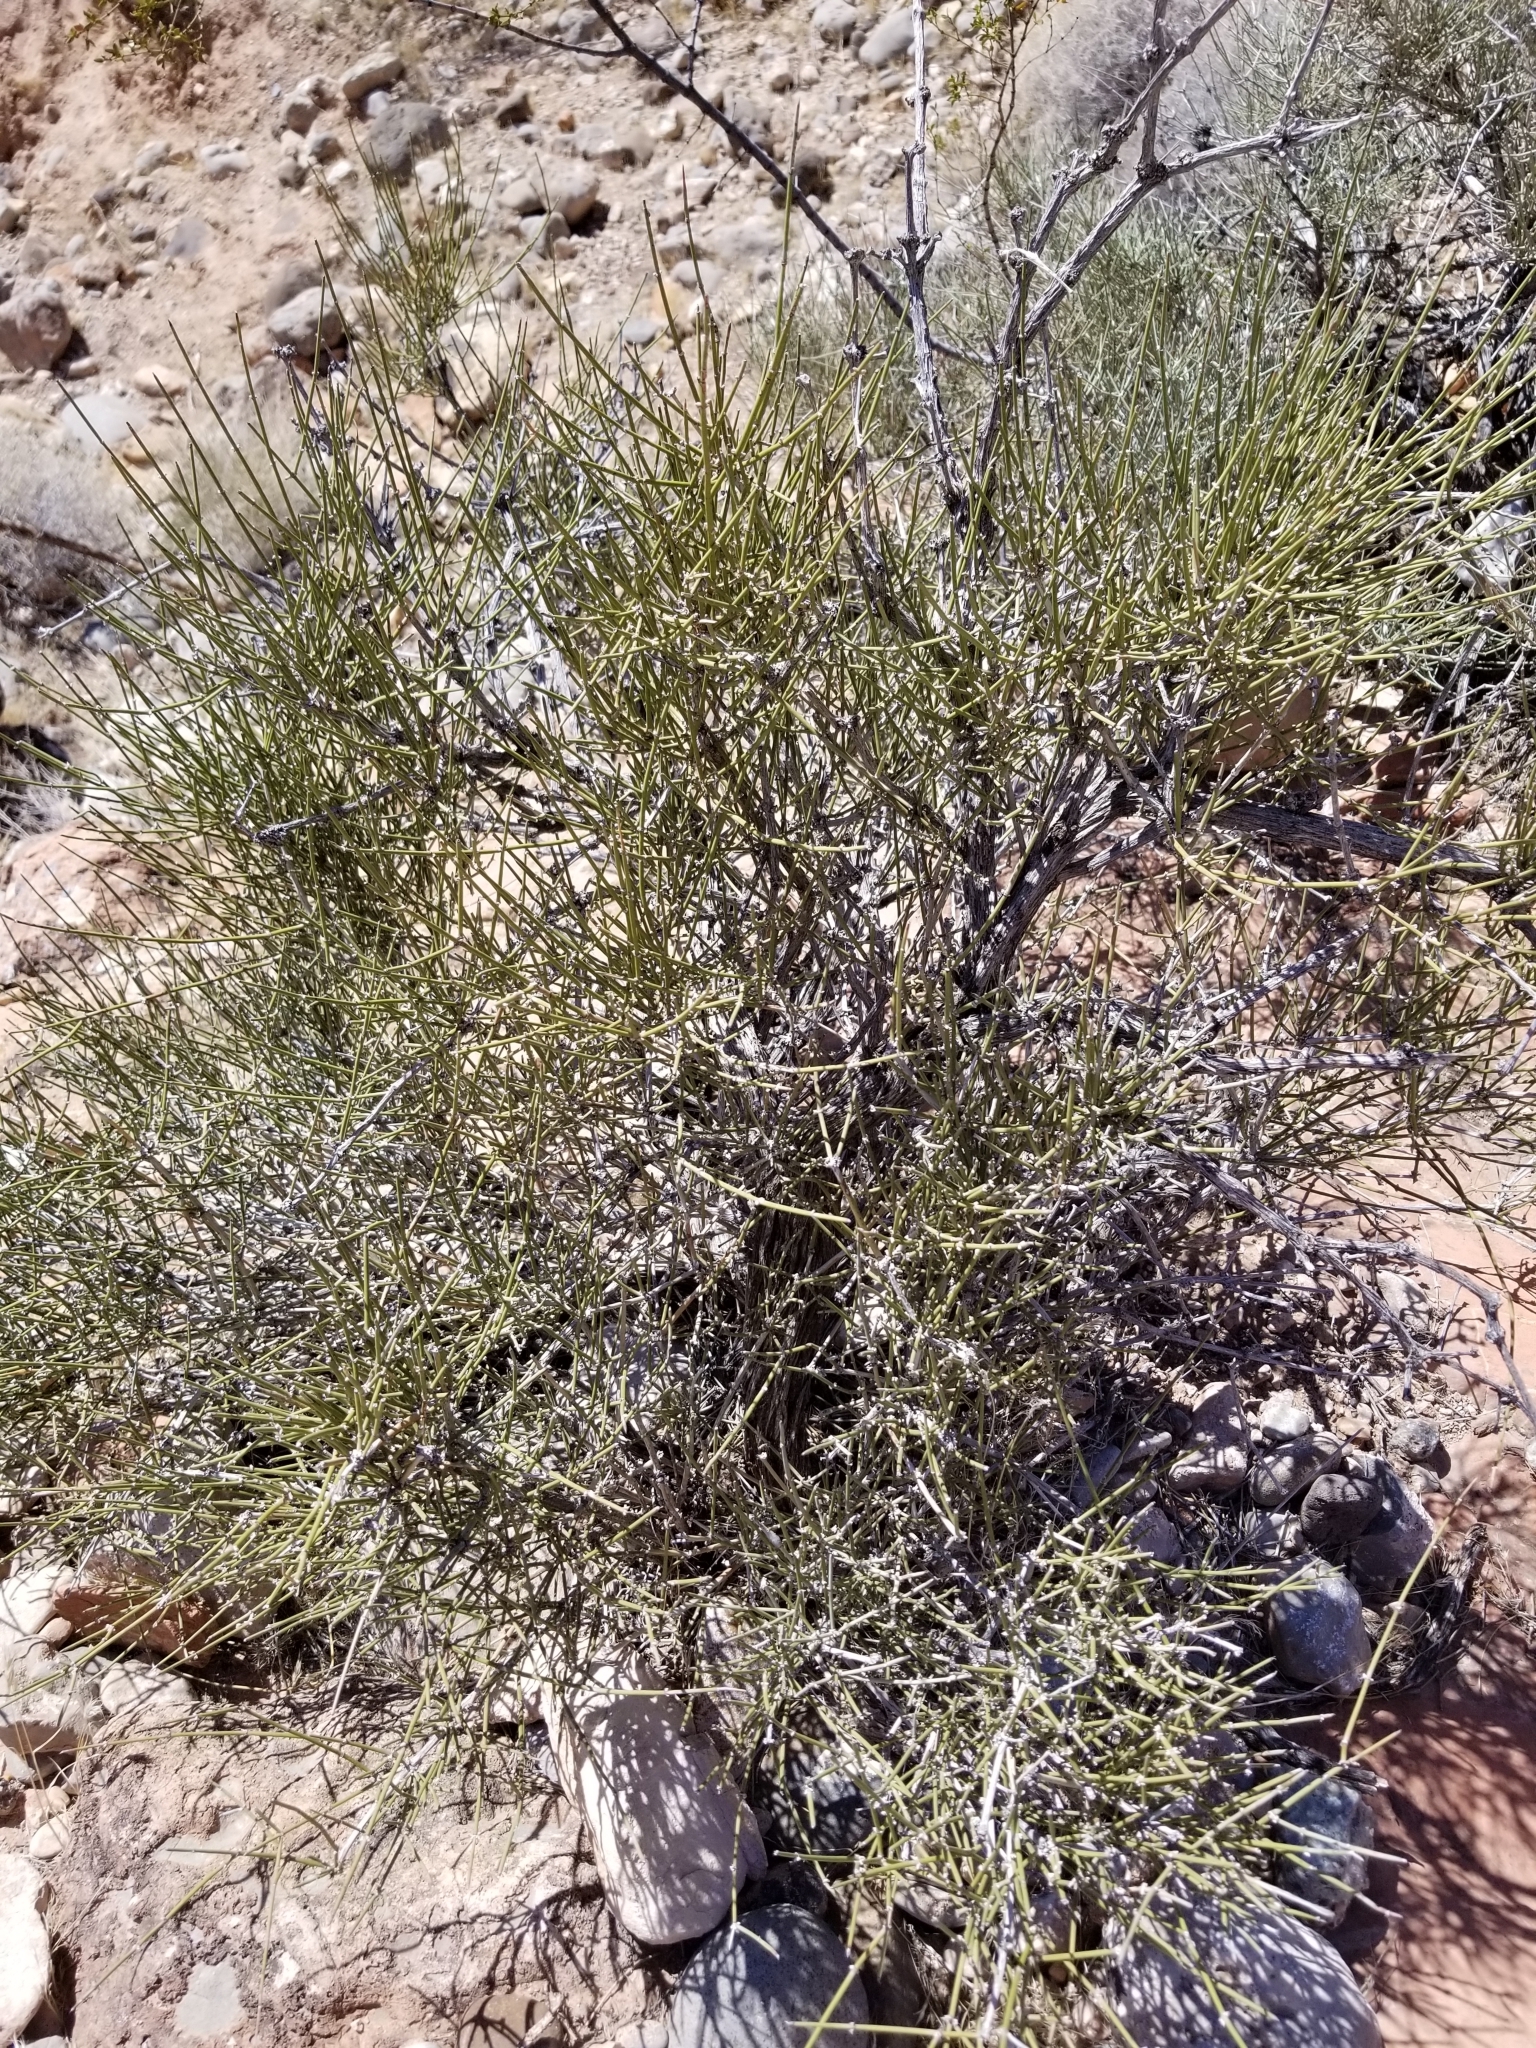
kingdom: Plantae
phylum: Tracheophyta
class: Gnetopsida
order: Ephedrales
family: Ephedraceae
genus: Ephedra
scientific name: Ephedra viridis
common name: Green ephedra
